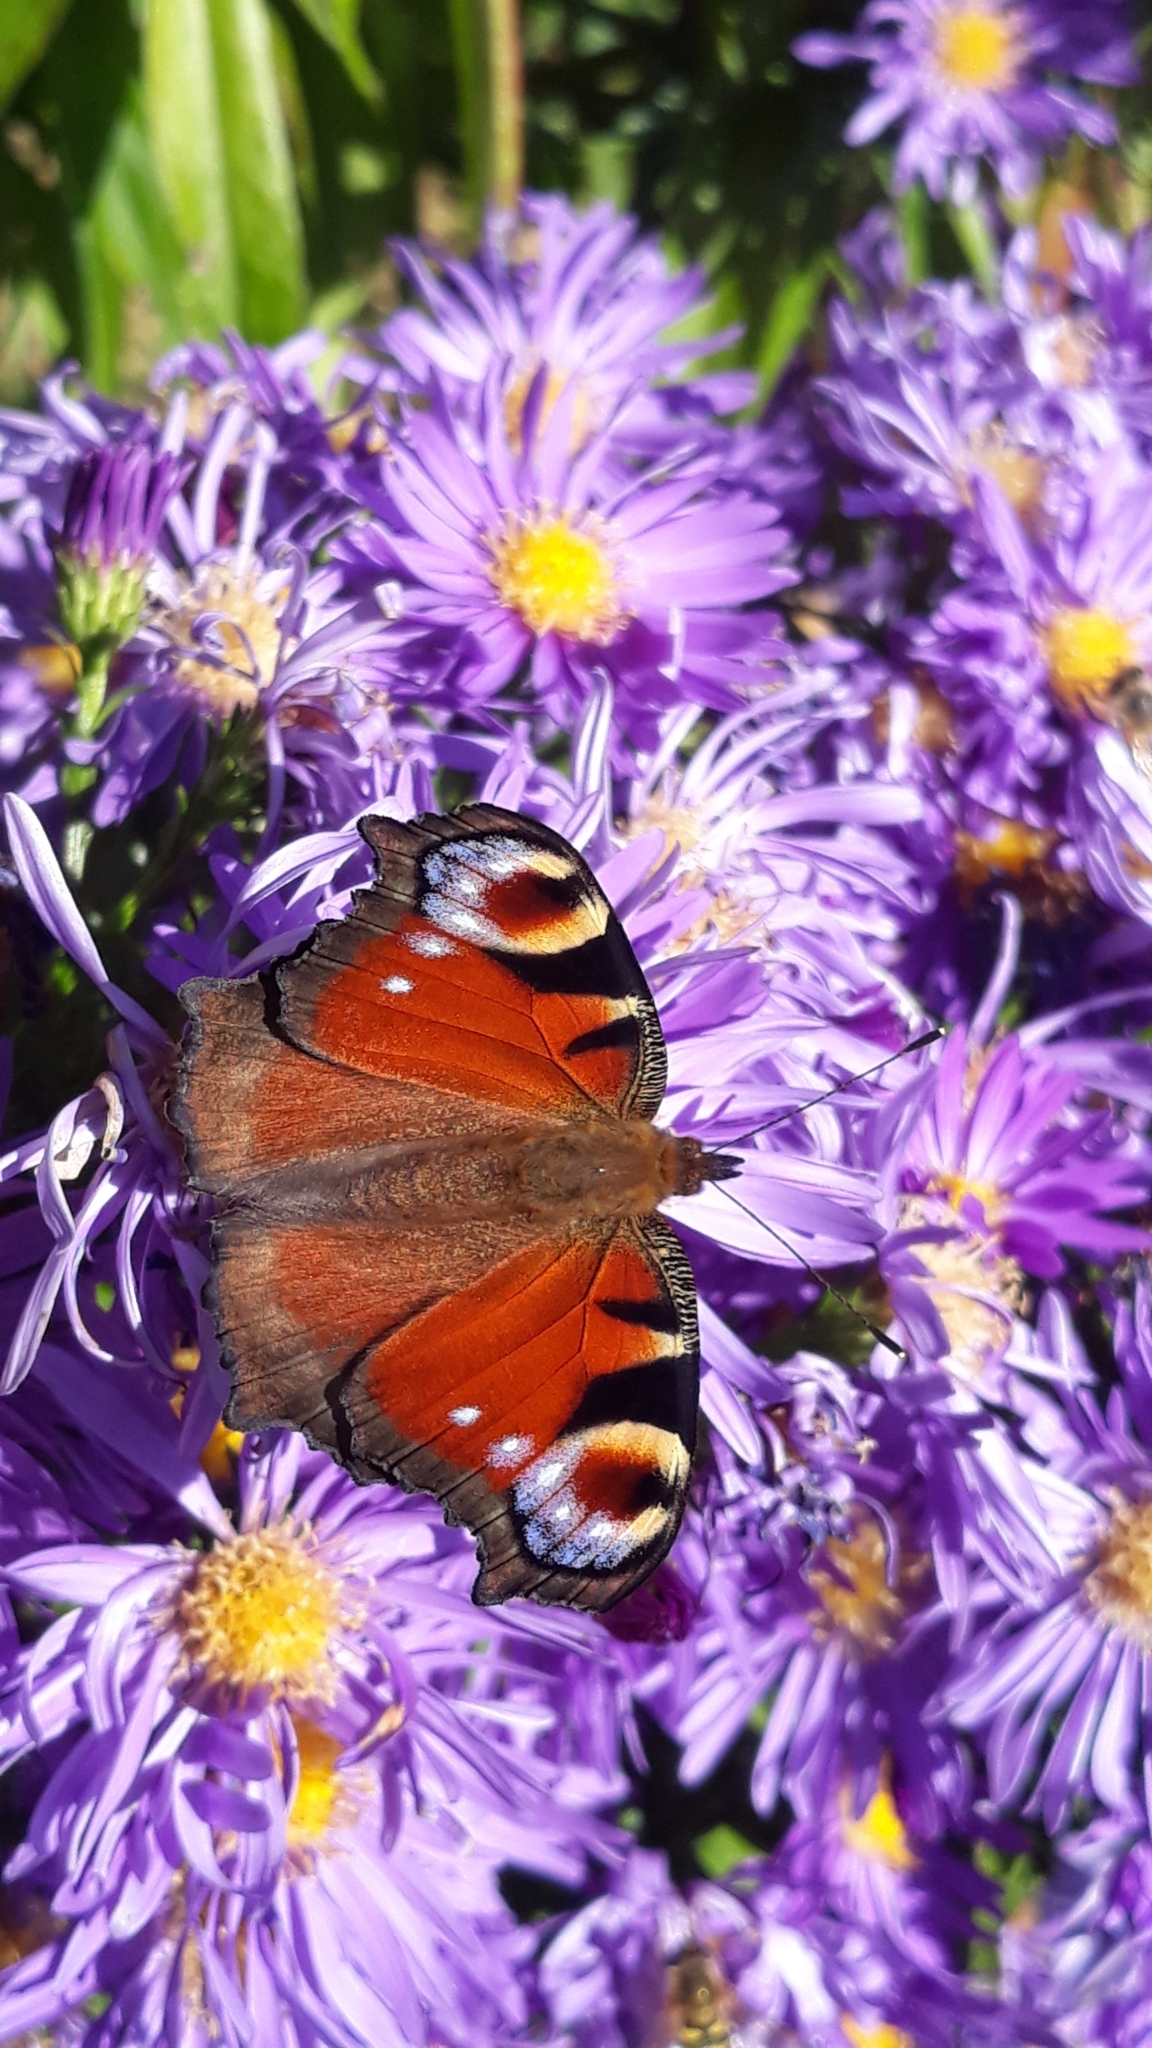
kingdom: Animalia
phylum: Arthropoda
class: Insecta
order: Lepidoptera
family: Nymphalidae
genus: Aglais
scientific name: Aglais io
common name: Peacock
